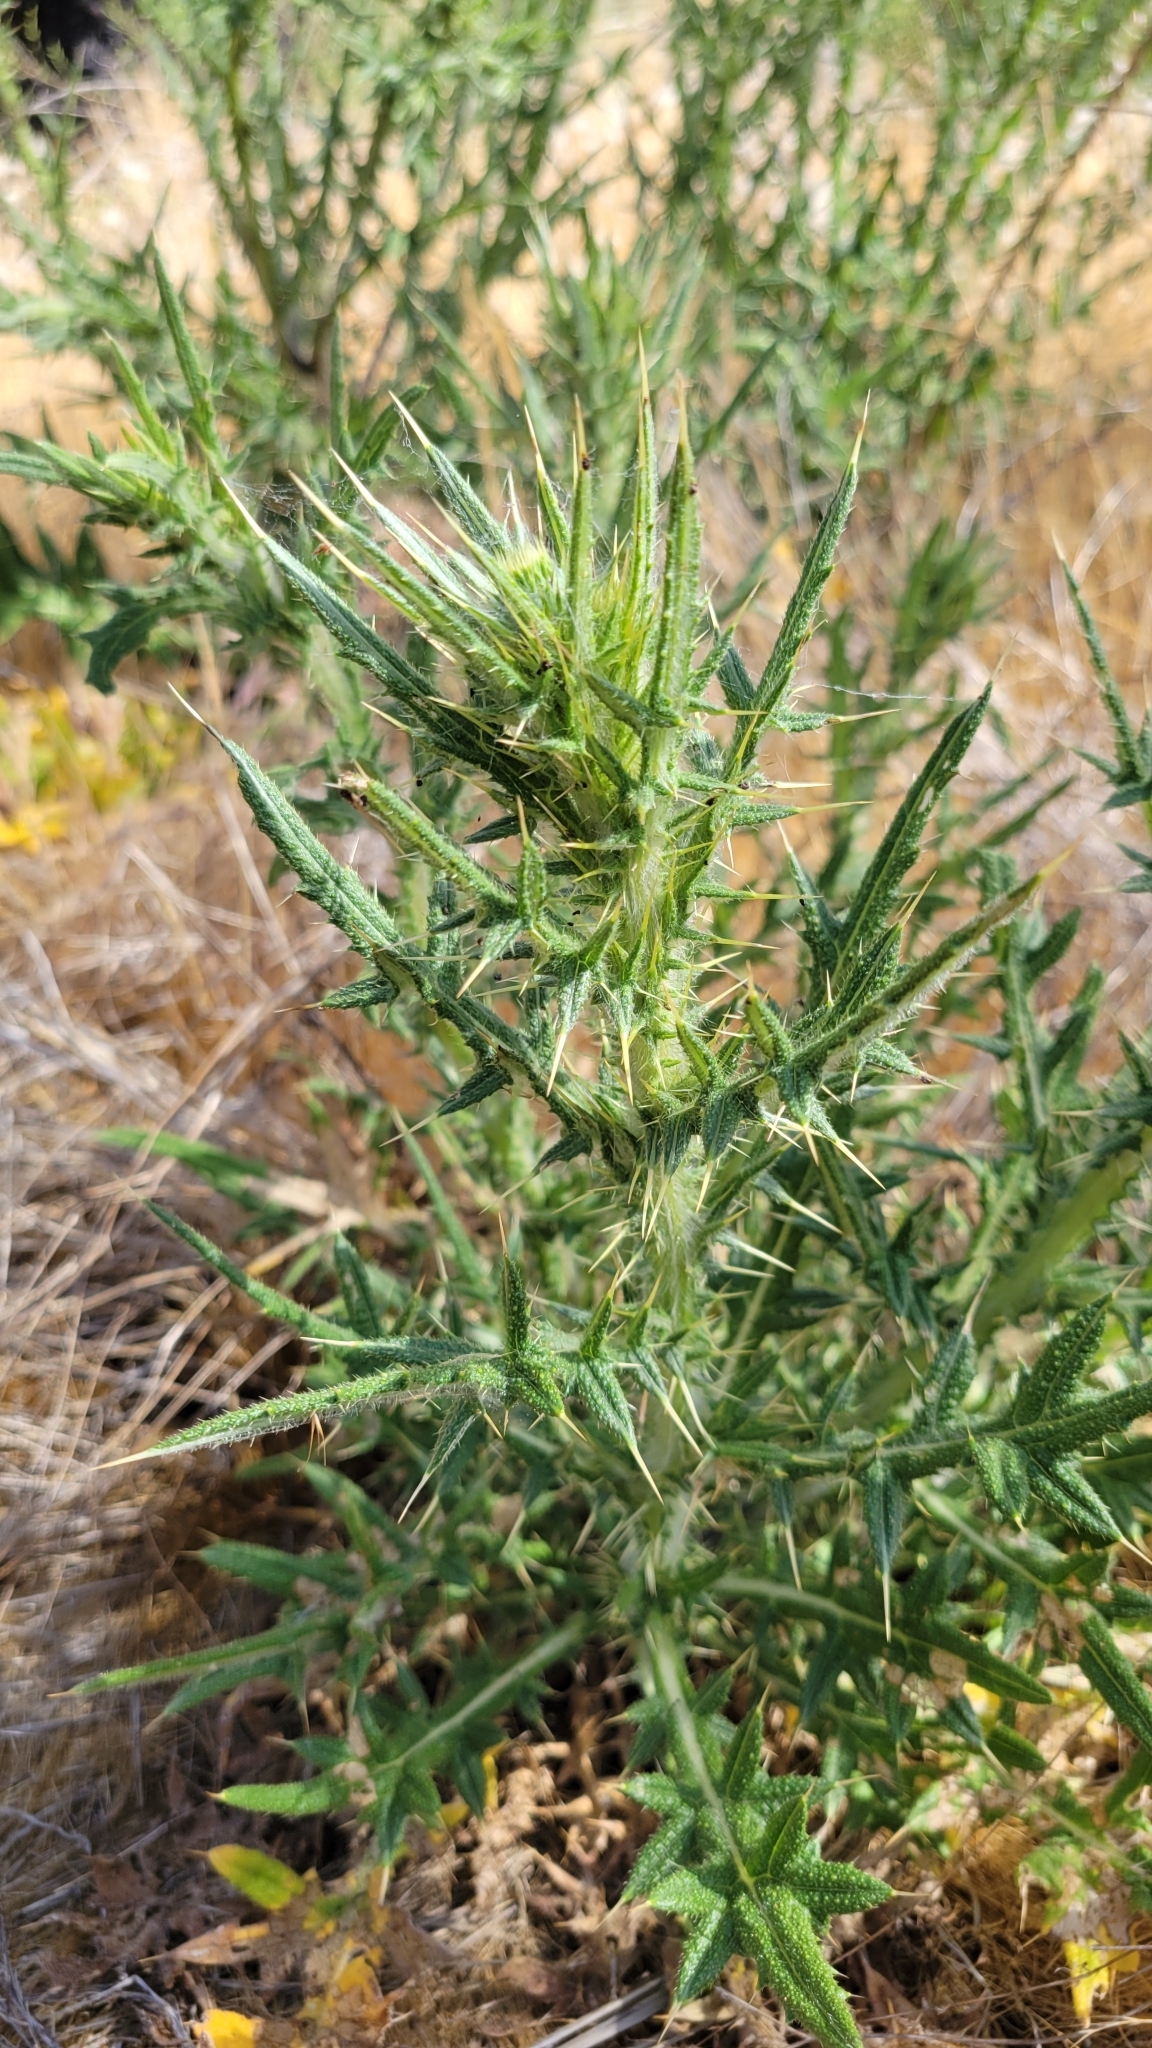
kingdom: Plantae
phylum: Tracheophyta
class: Magnoliopsida
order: Asterales
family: Asteraceae
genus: Cirsium
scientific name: Cirsium vulgare
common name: Bull thistle
